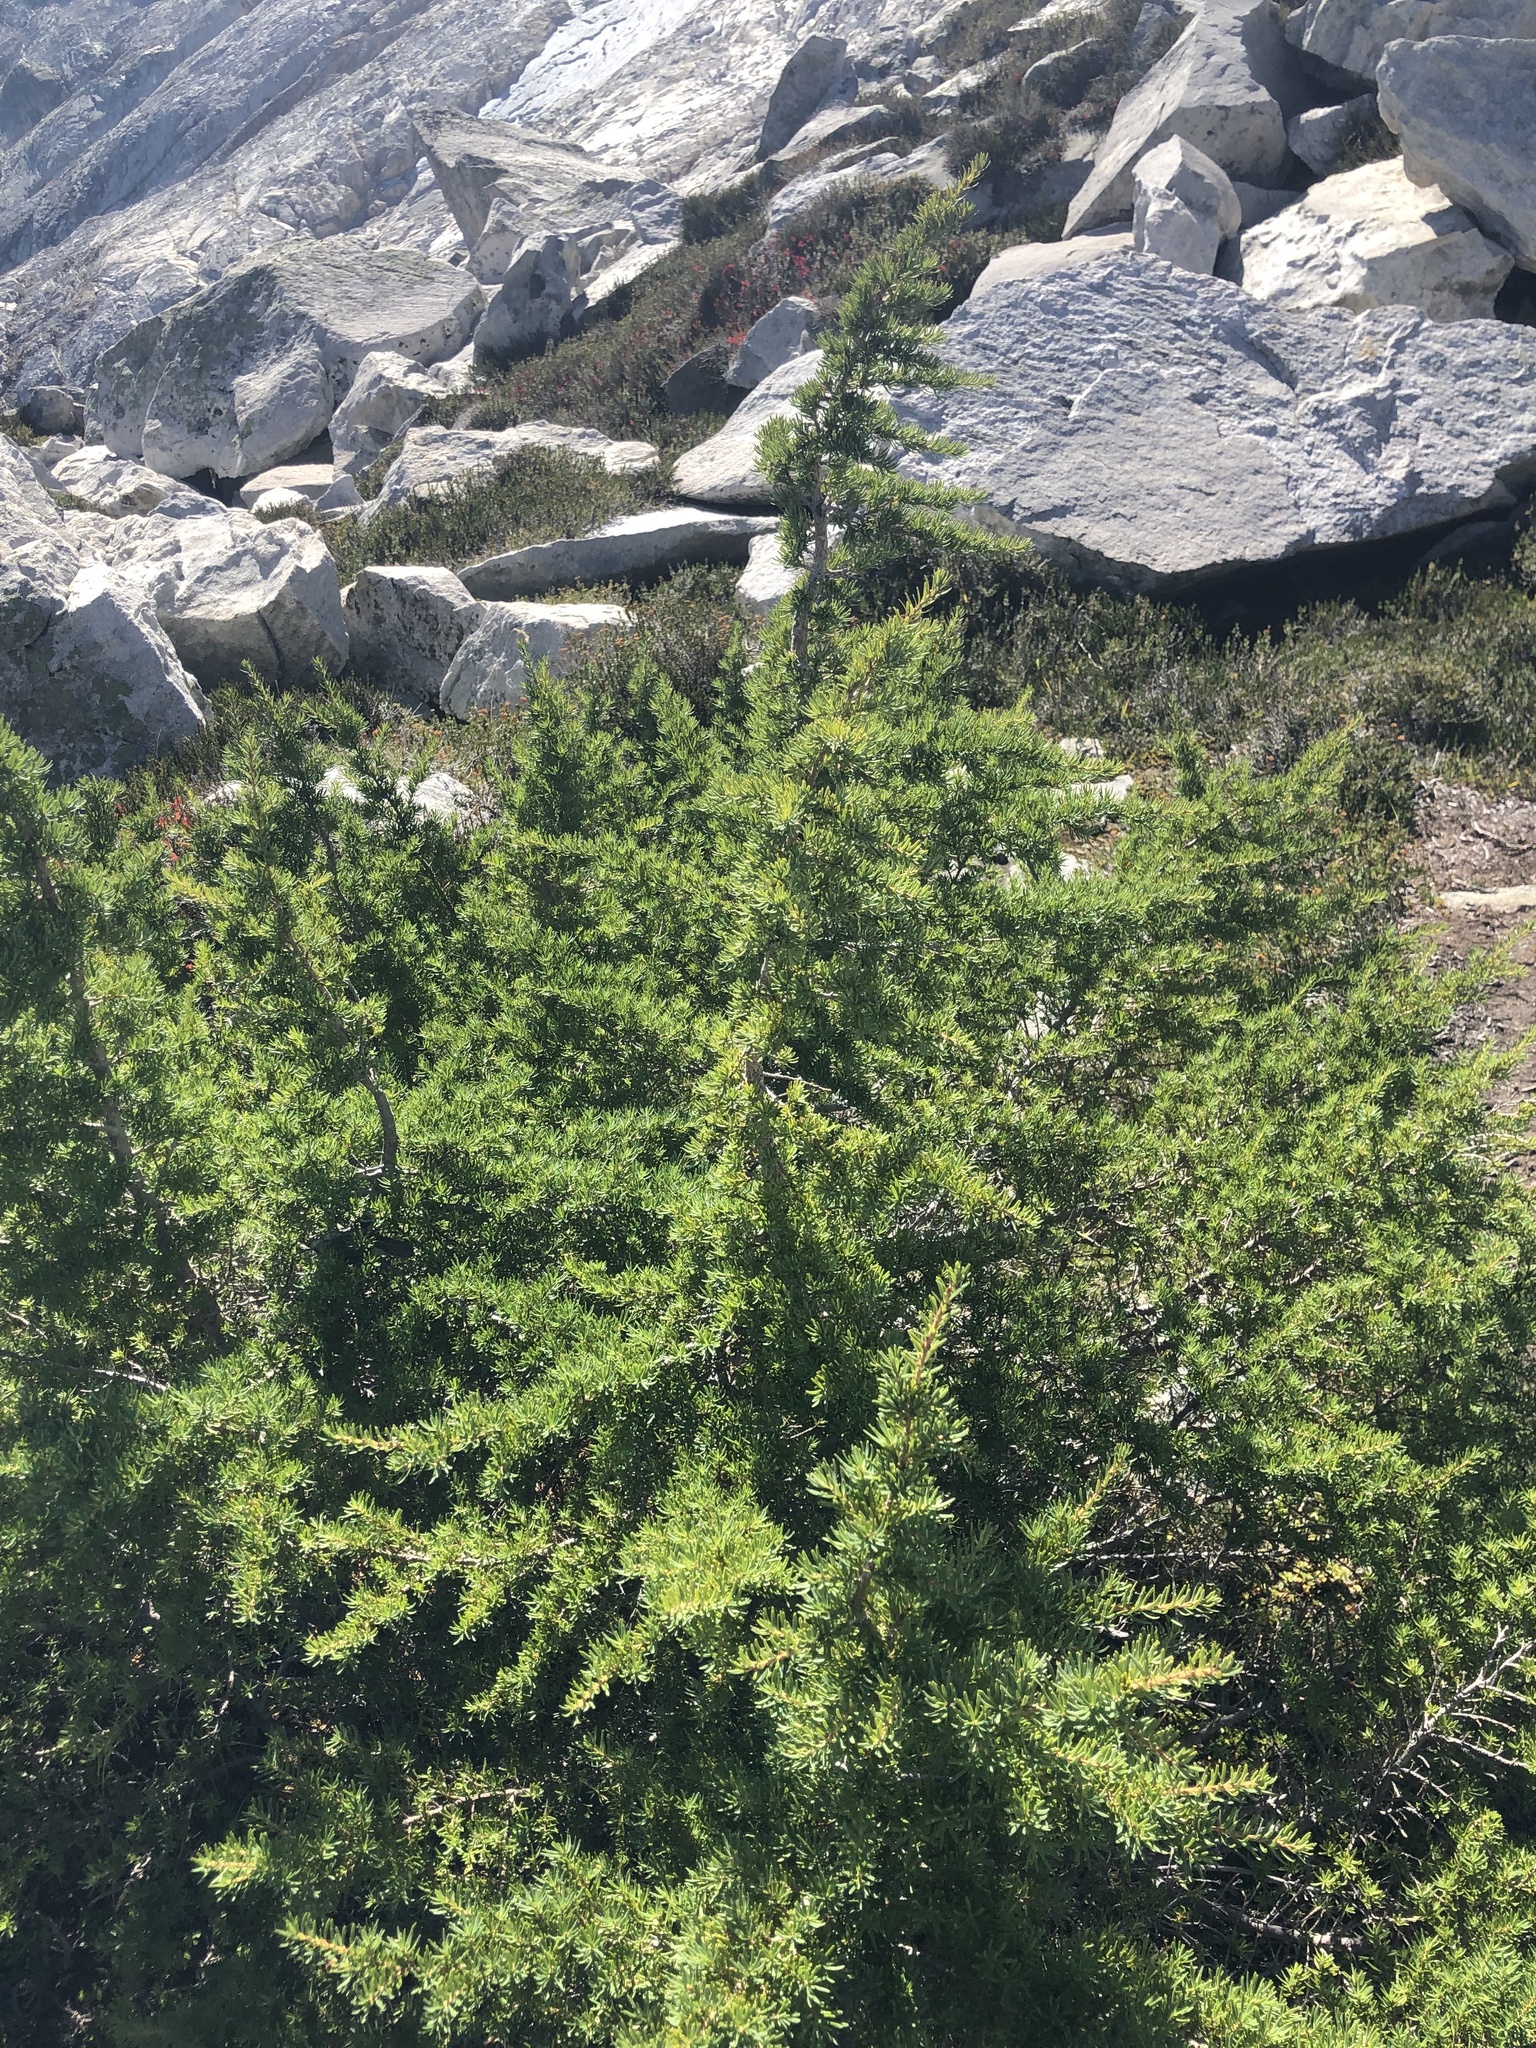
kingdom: Plantae
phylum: Tracheophyta
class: Pinopsida
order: Pinales
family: Pinaceae
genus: Tsuga
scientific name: Tsuga mertensiana
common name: Mountain hemlock
